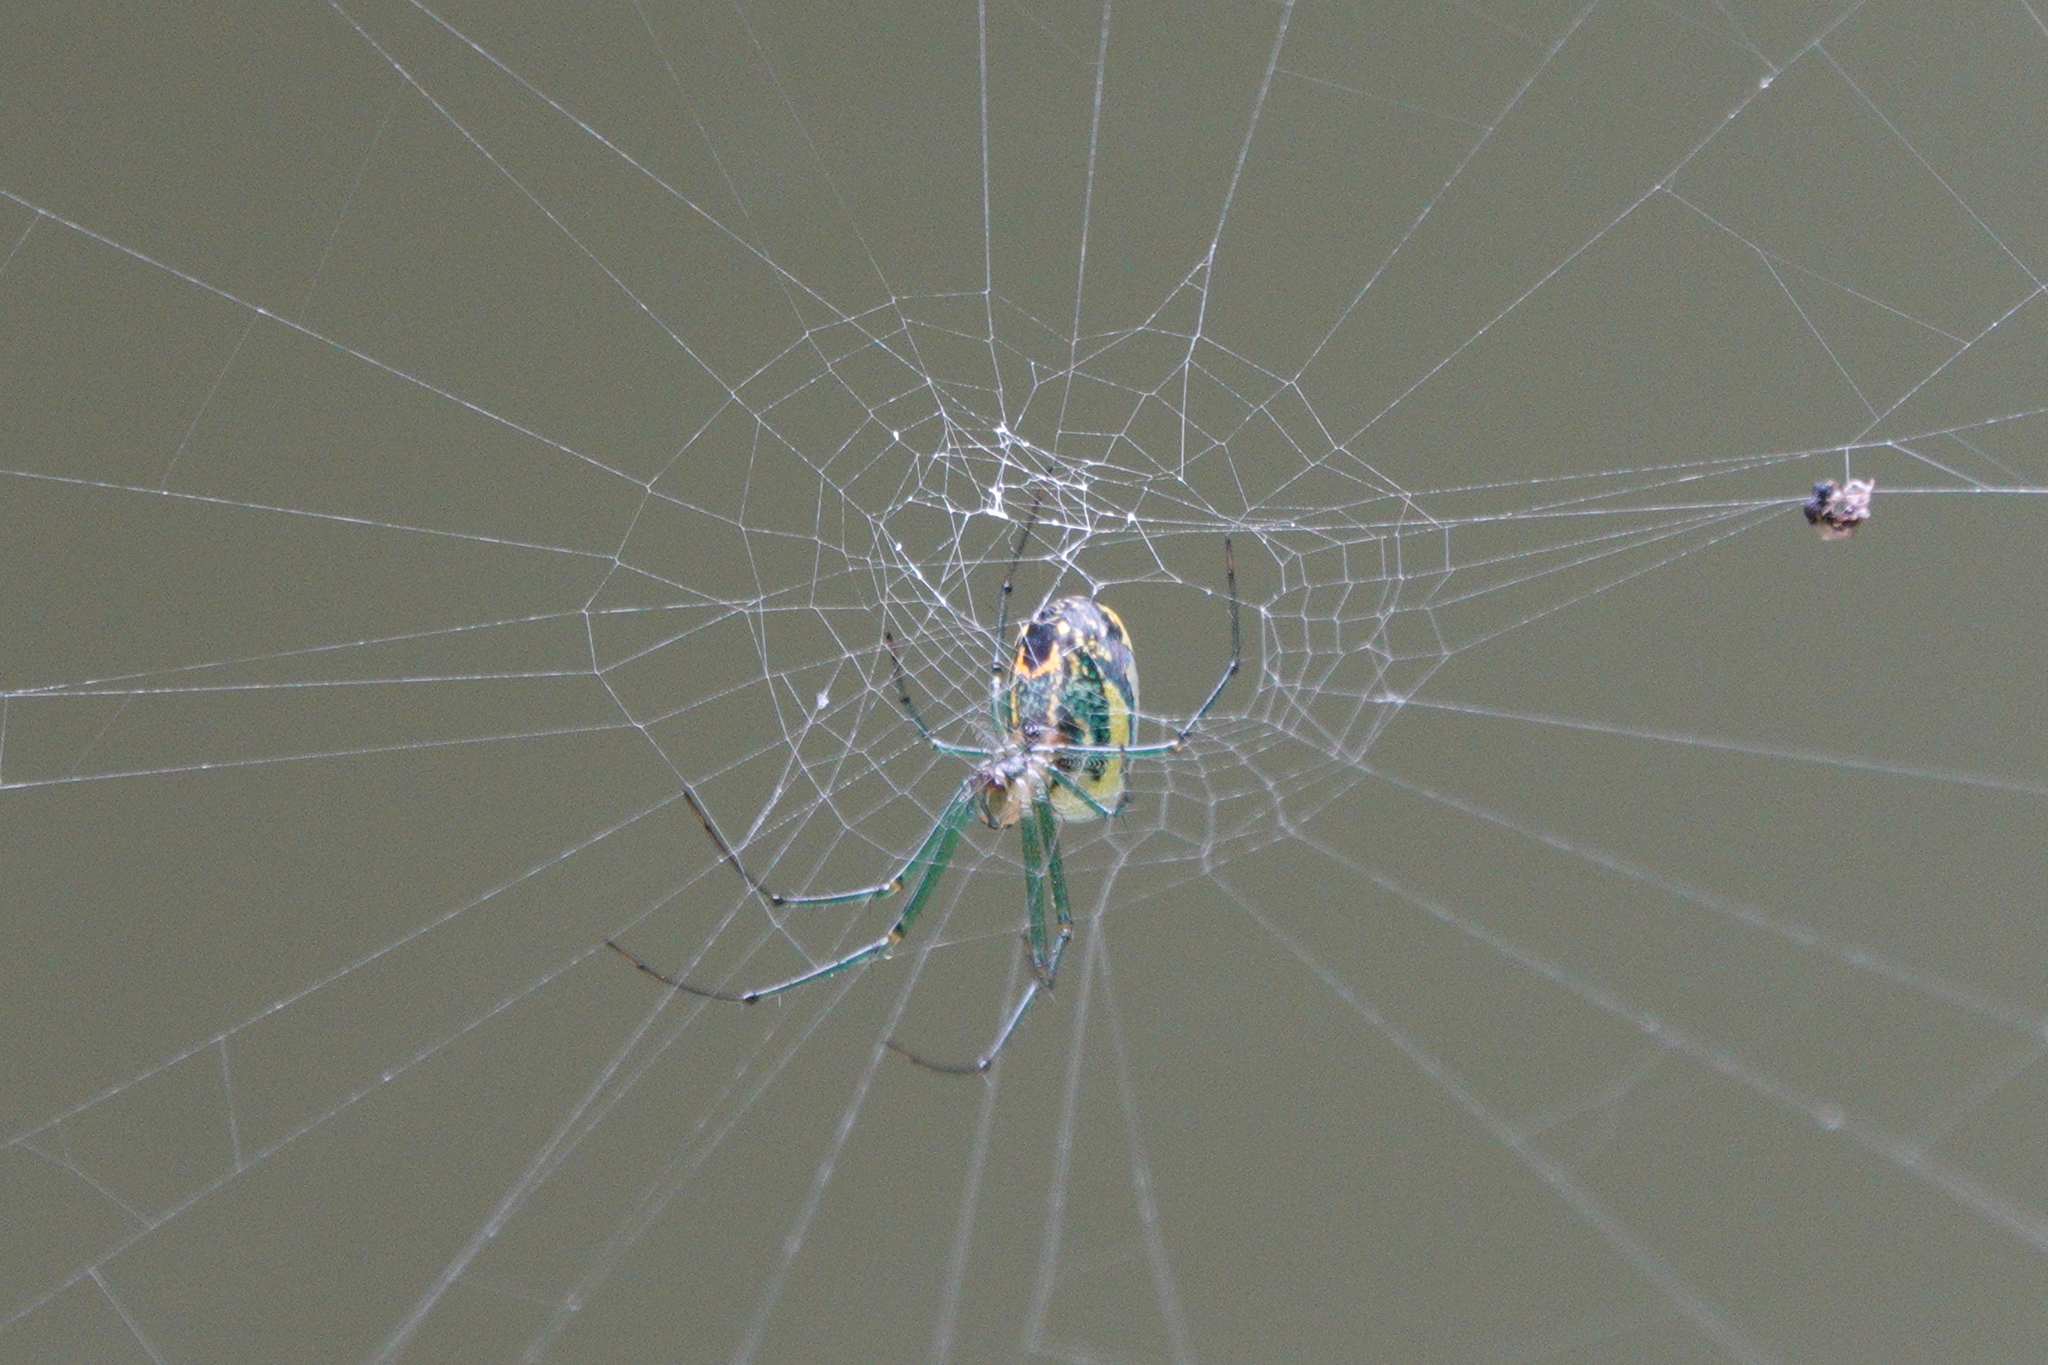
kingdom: Animalia
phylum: Arthropoda
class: Arachnida
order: Araneae
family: Tetragnathidae
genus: Leucauge
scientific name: Leucauge venusta
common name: Longjawed orb weavers
